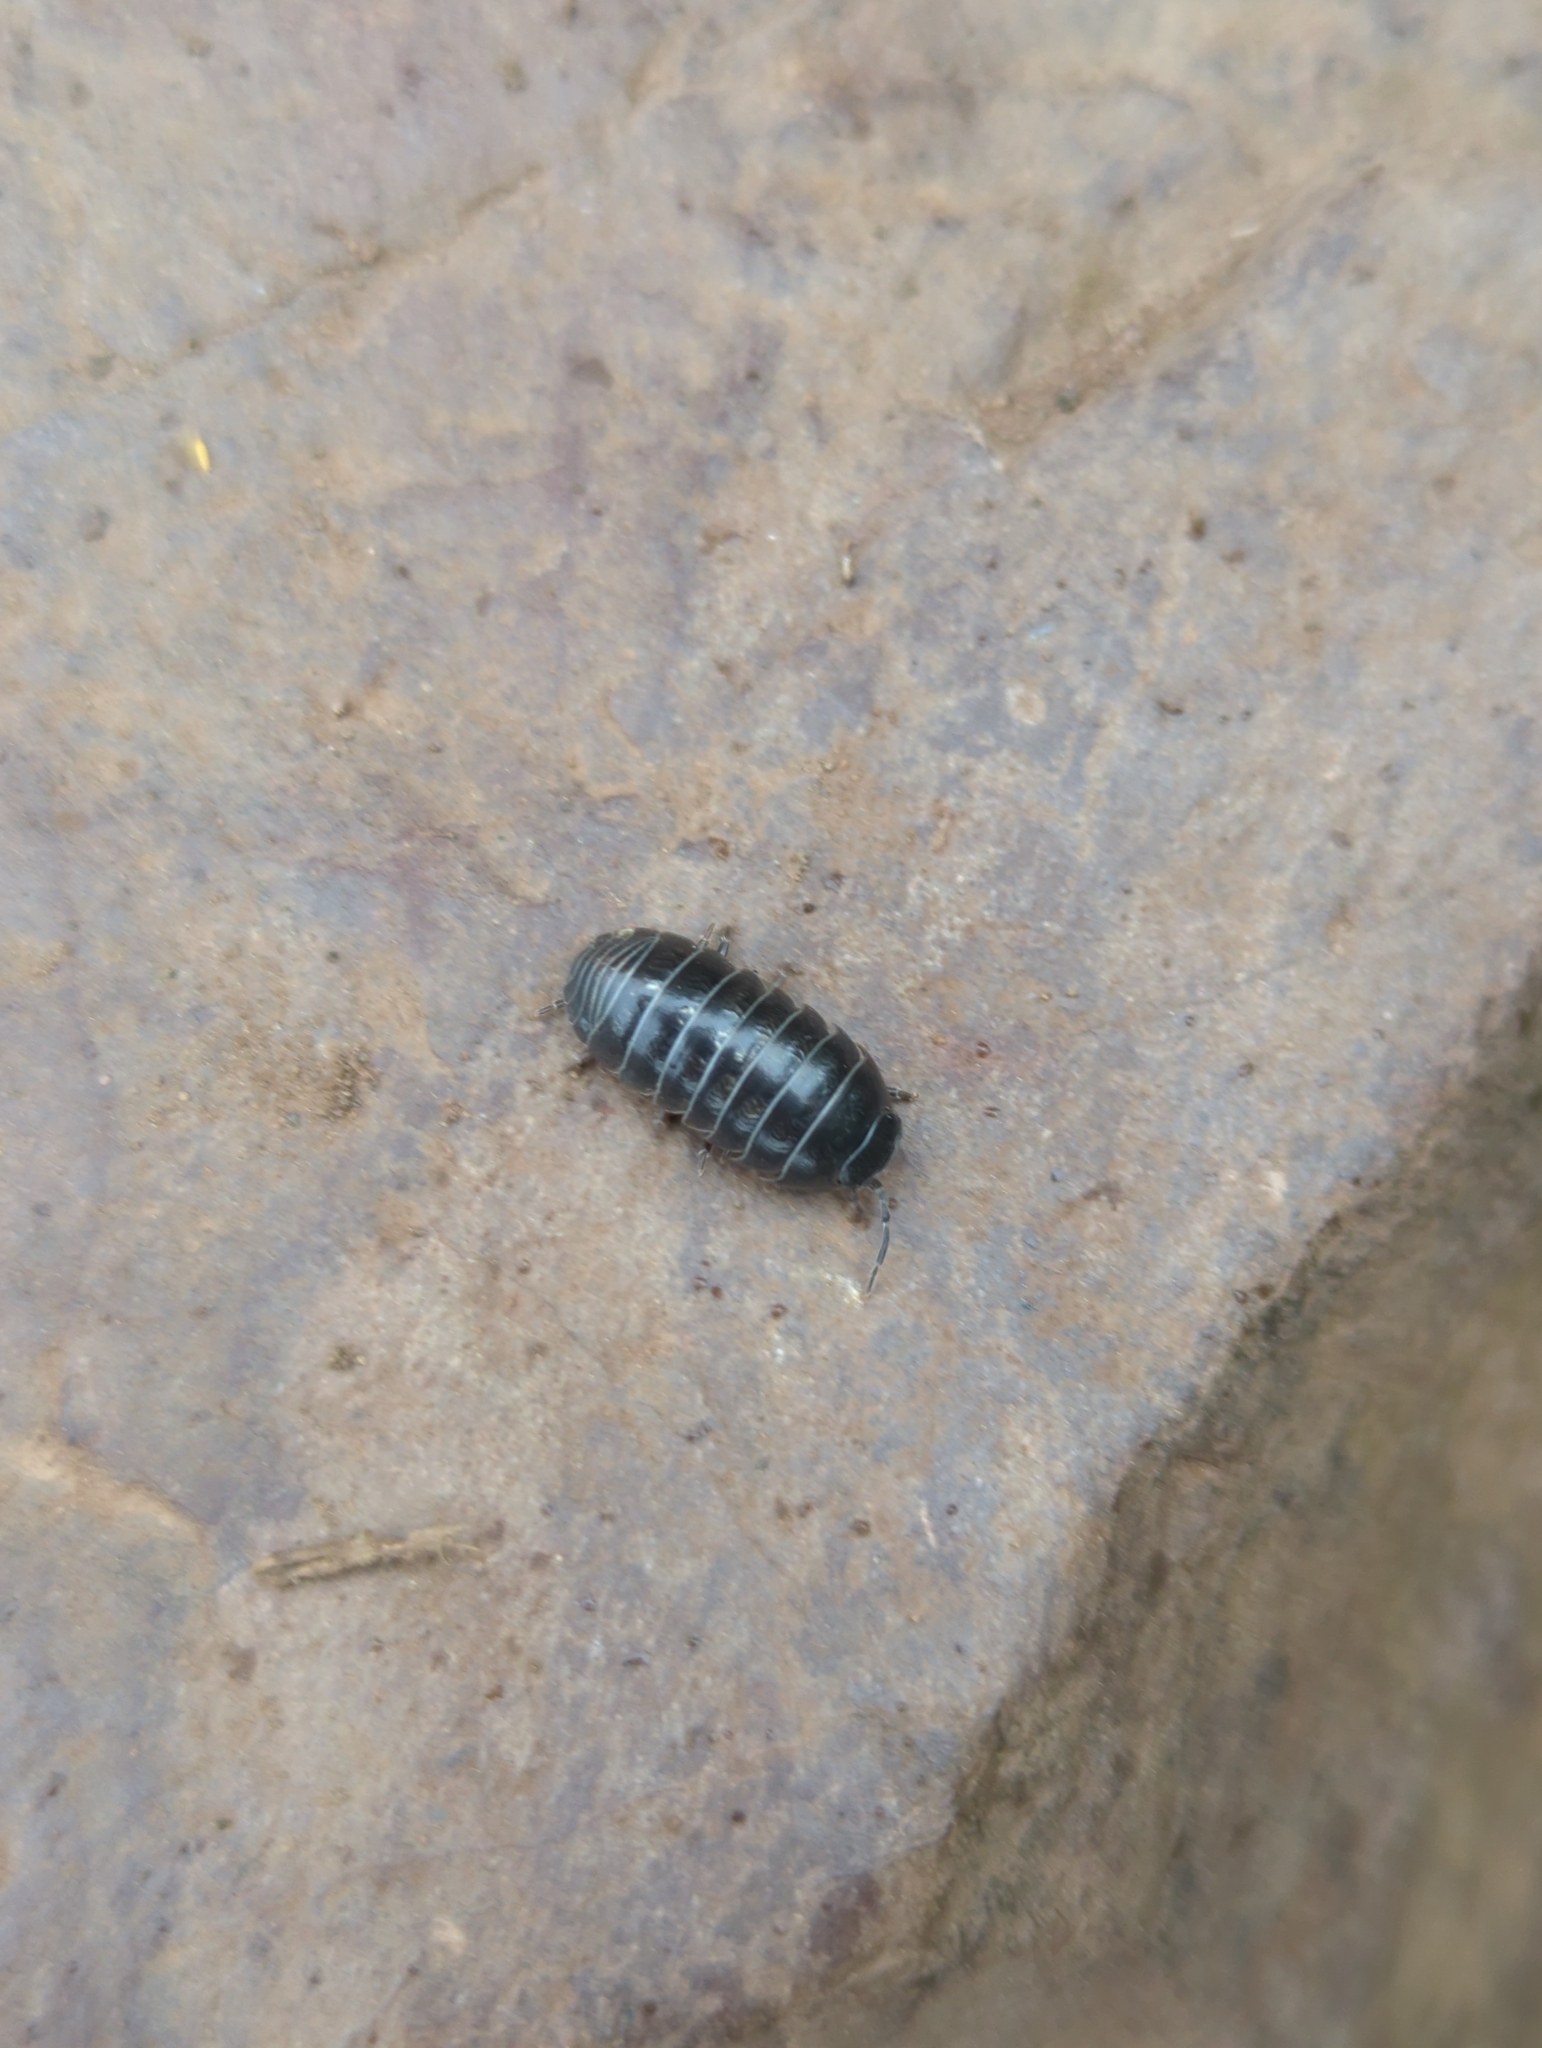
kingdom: Animalia
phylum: Arthropoda
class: Malacostraca
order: Isopoda
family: Armadillidiidae
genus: Armadillidium
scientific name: Armadillidium vulgare
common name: Common pill woodlouse
